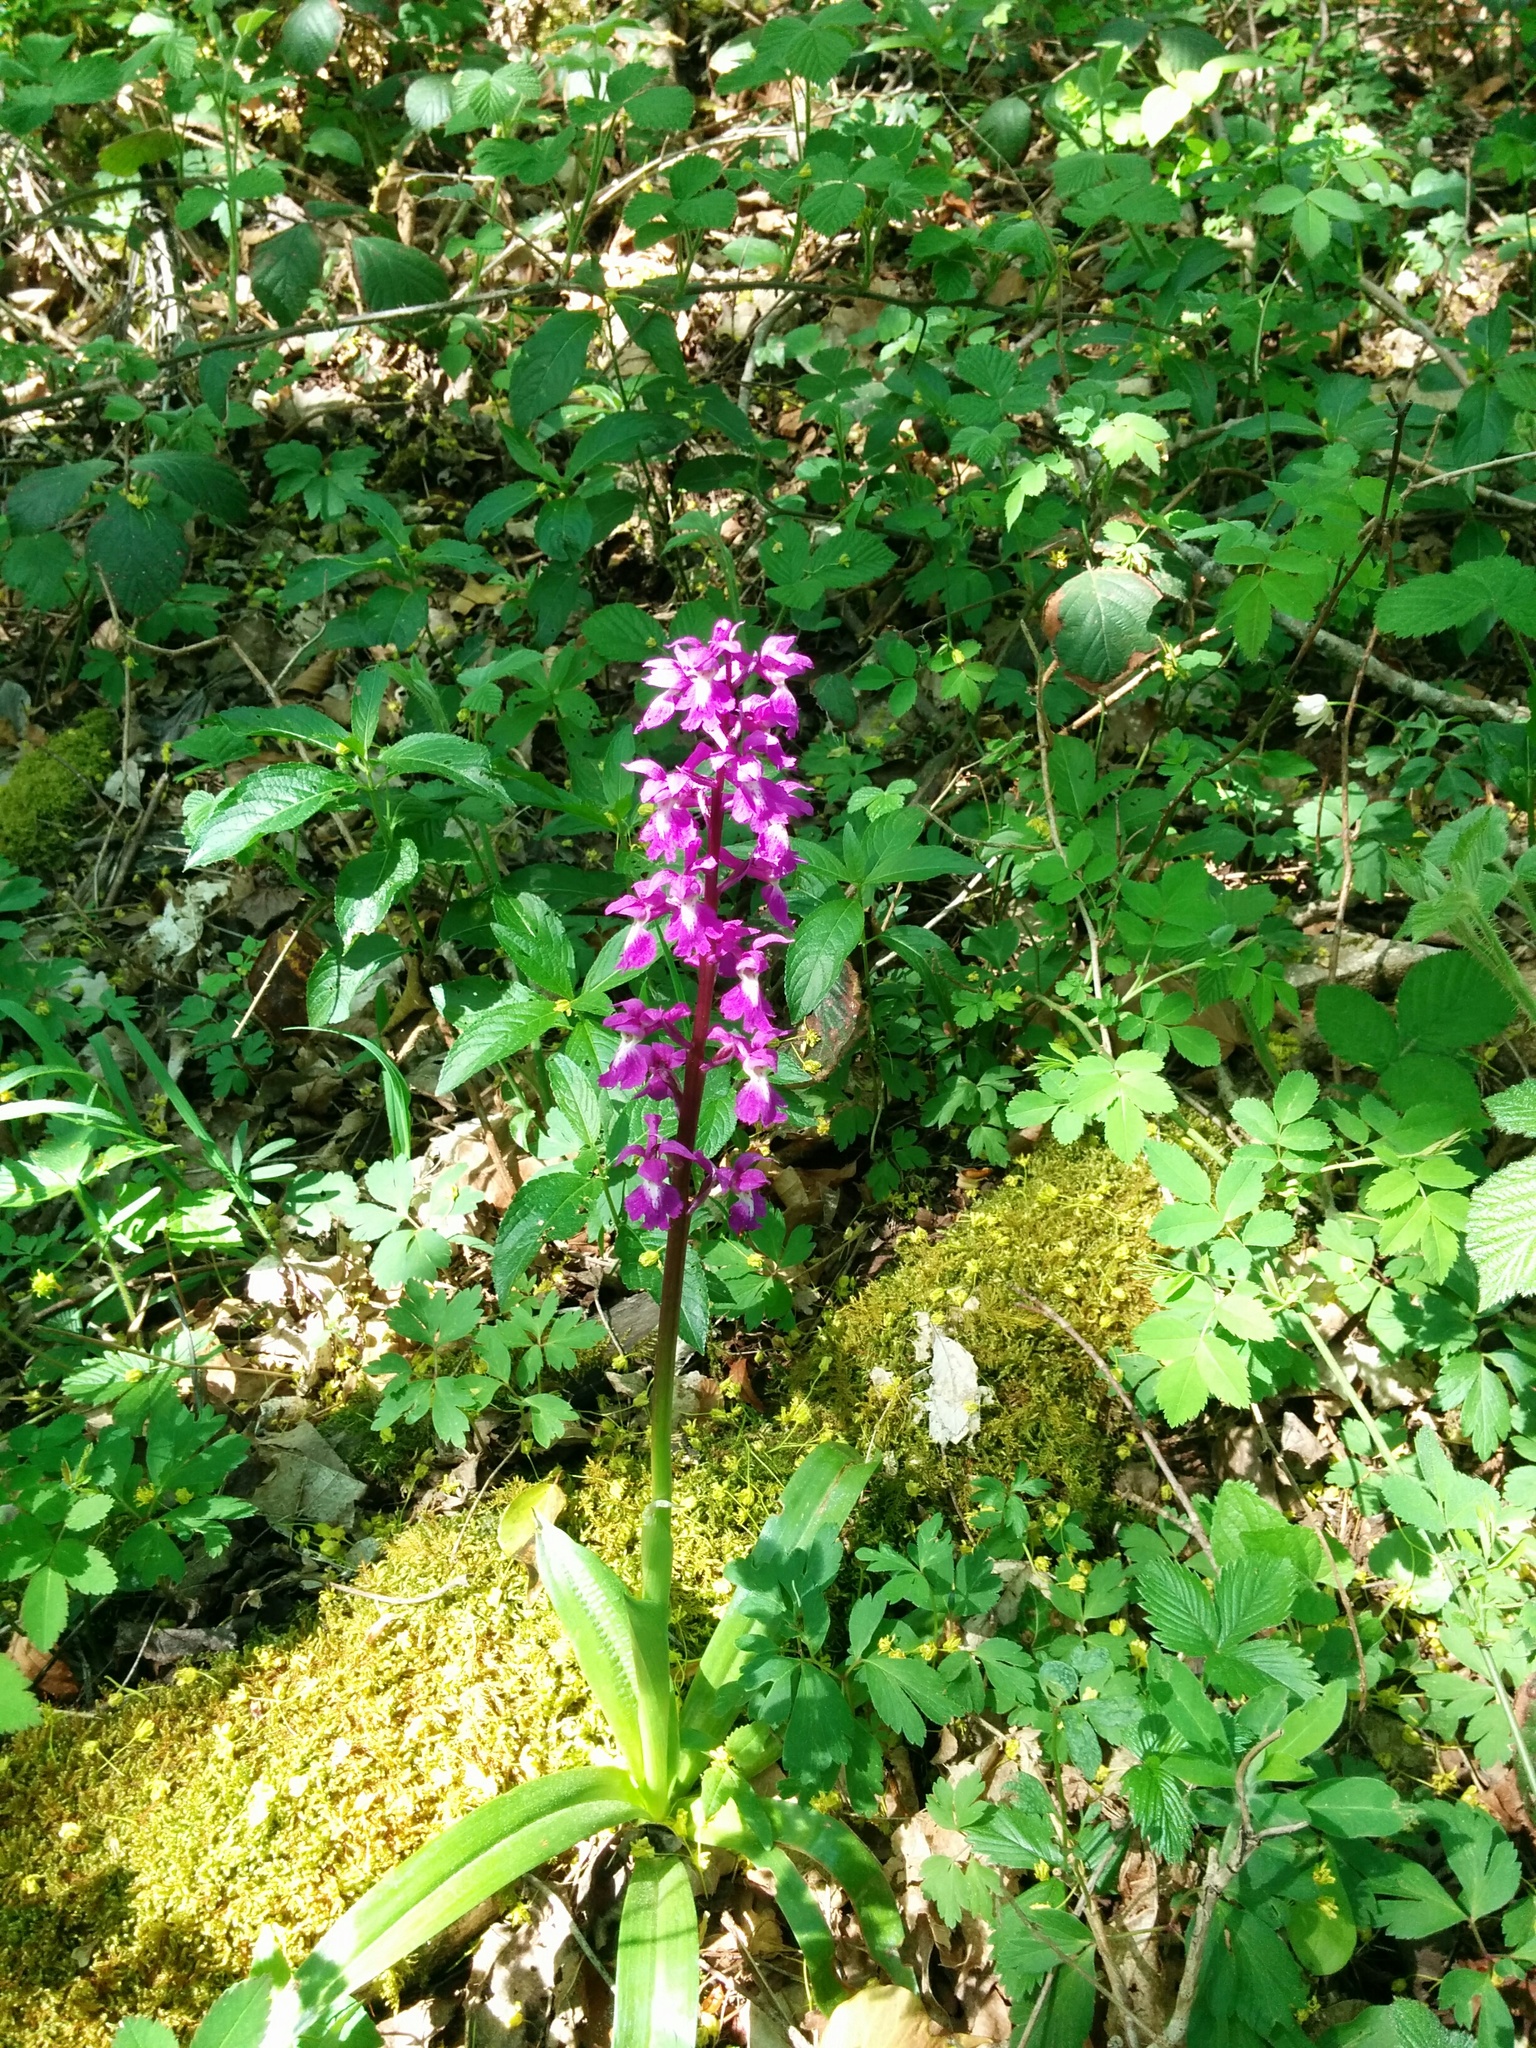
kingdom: Plantae
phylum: Tracheophyta
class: Liliopsida
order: Asparagales
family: Orchidaceae
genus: Orchis
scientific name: Orchis mascula
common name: Early-purple orchid
